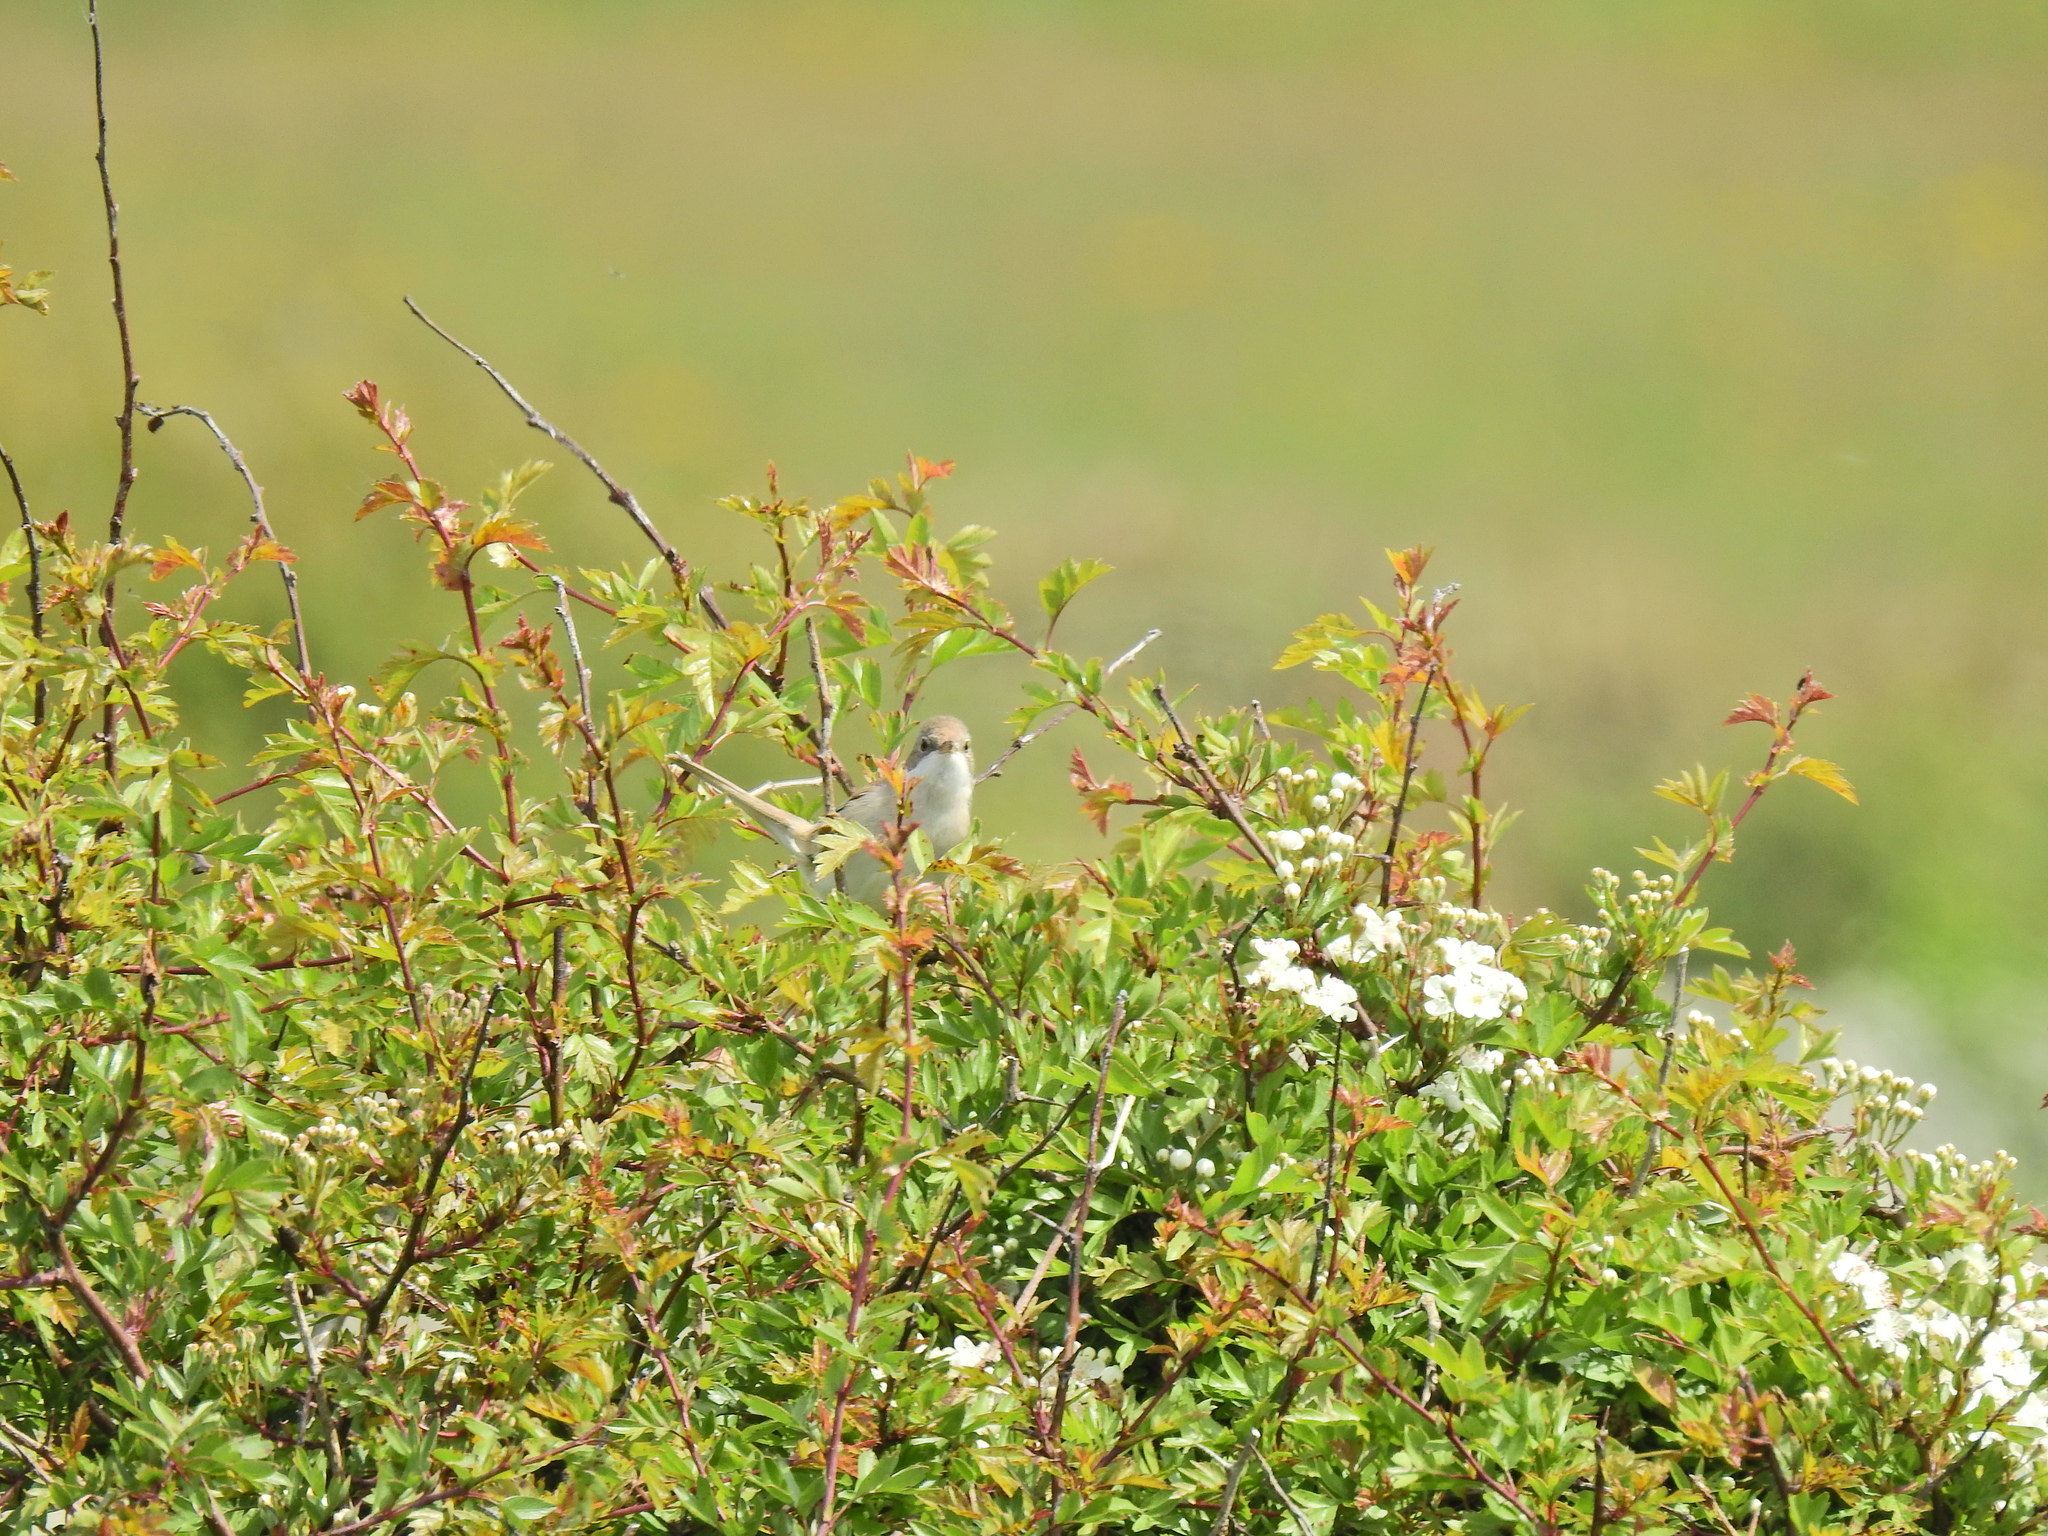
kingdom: Animalia
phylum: Chordata
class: Aves
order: Passeriformes
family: Sylviidae
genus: Sylvia
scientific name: Sylvia communis
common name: Common whitethroat
